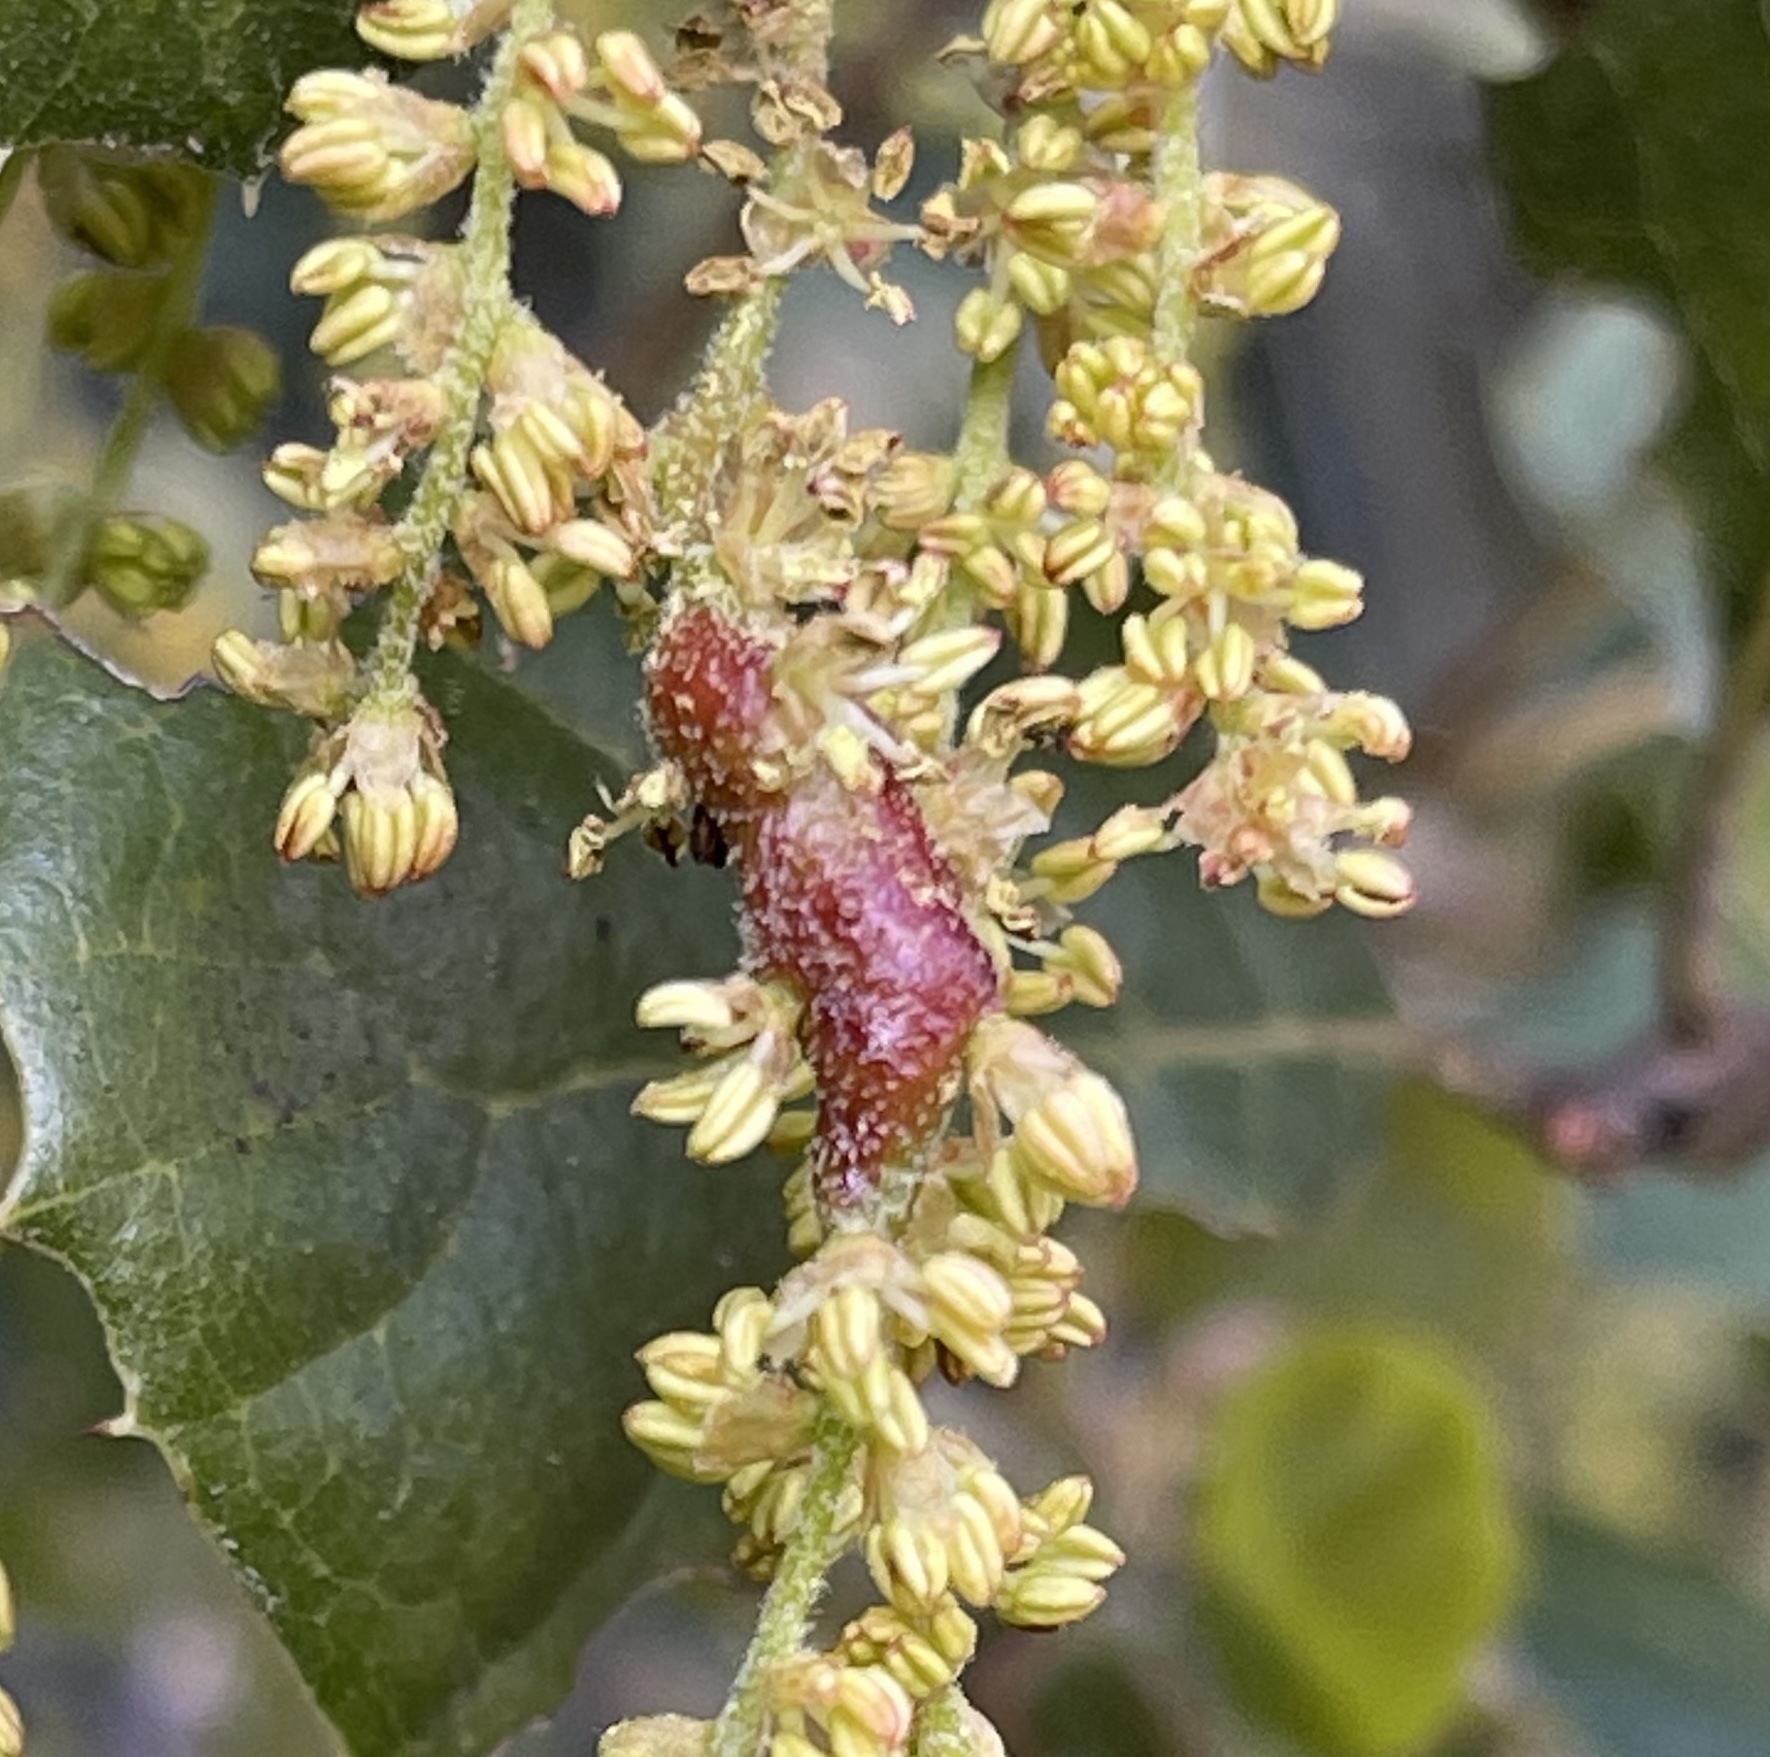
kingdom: Animalia
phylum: Arthropoda
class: Insecta
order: Hymenoptera
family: Cynipidae
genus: Callirhytis
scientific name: Callirhytis
